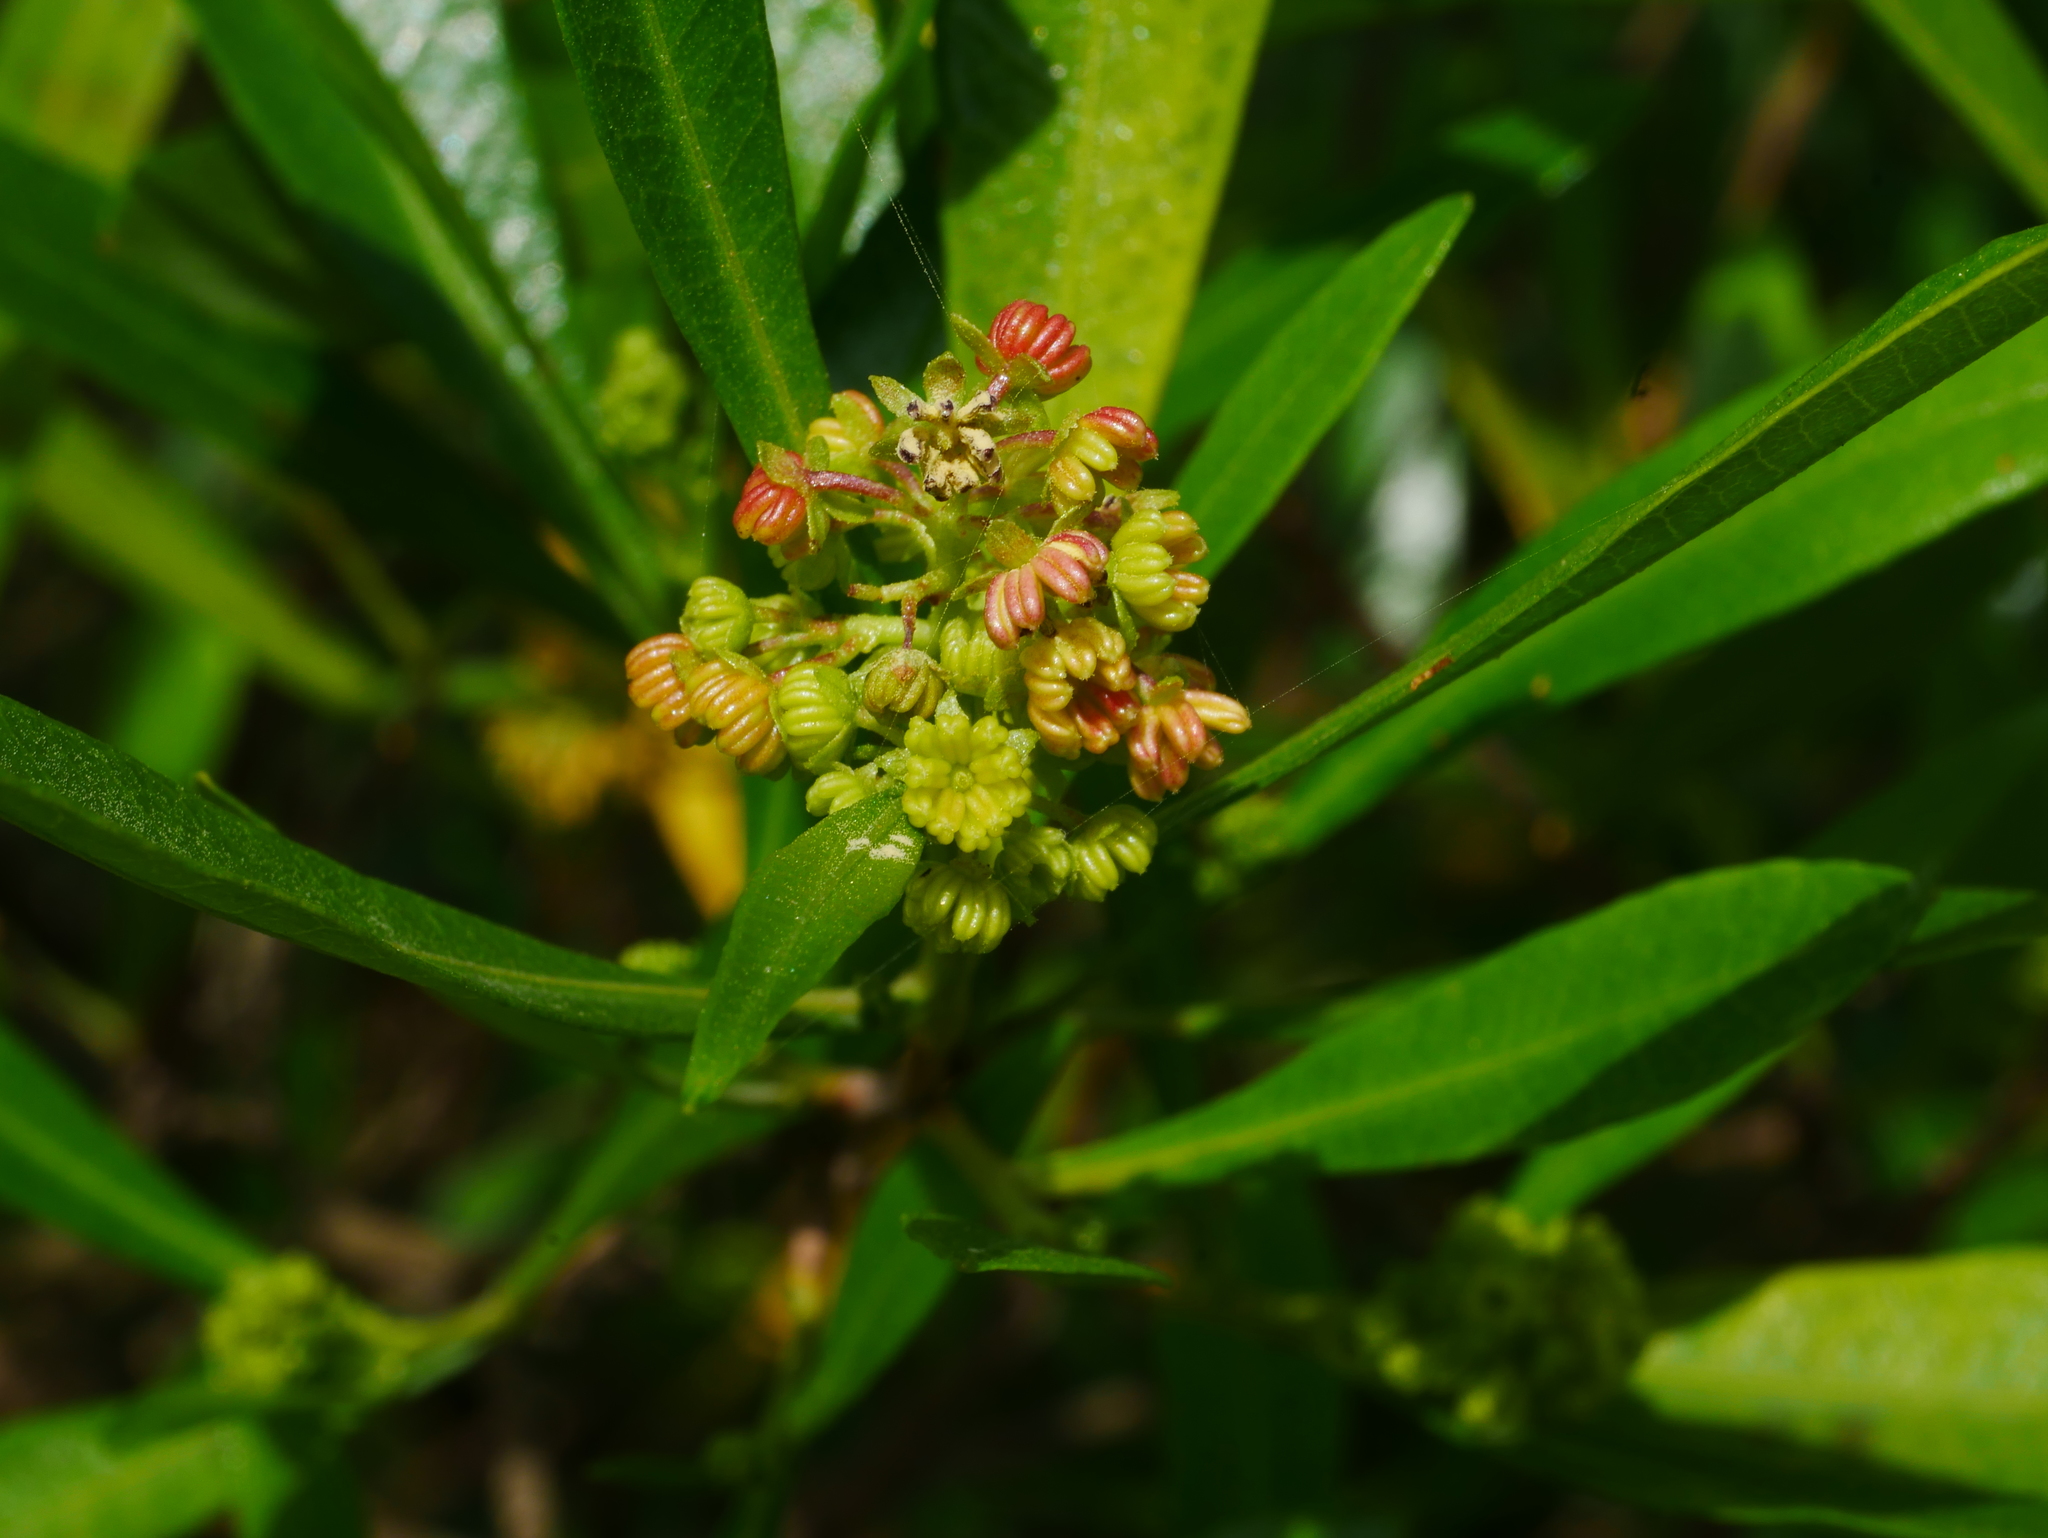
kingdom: Plantae
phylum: Tracheophyta
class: Magnoliopsida
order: Sapindales
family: Sapindaceae
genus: Dodonaea
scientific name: Dodonaea viscosa
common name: Hopbush
